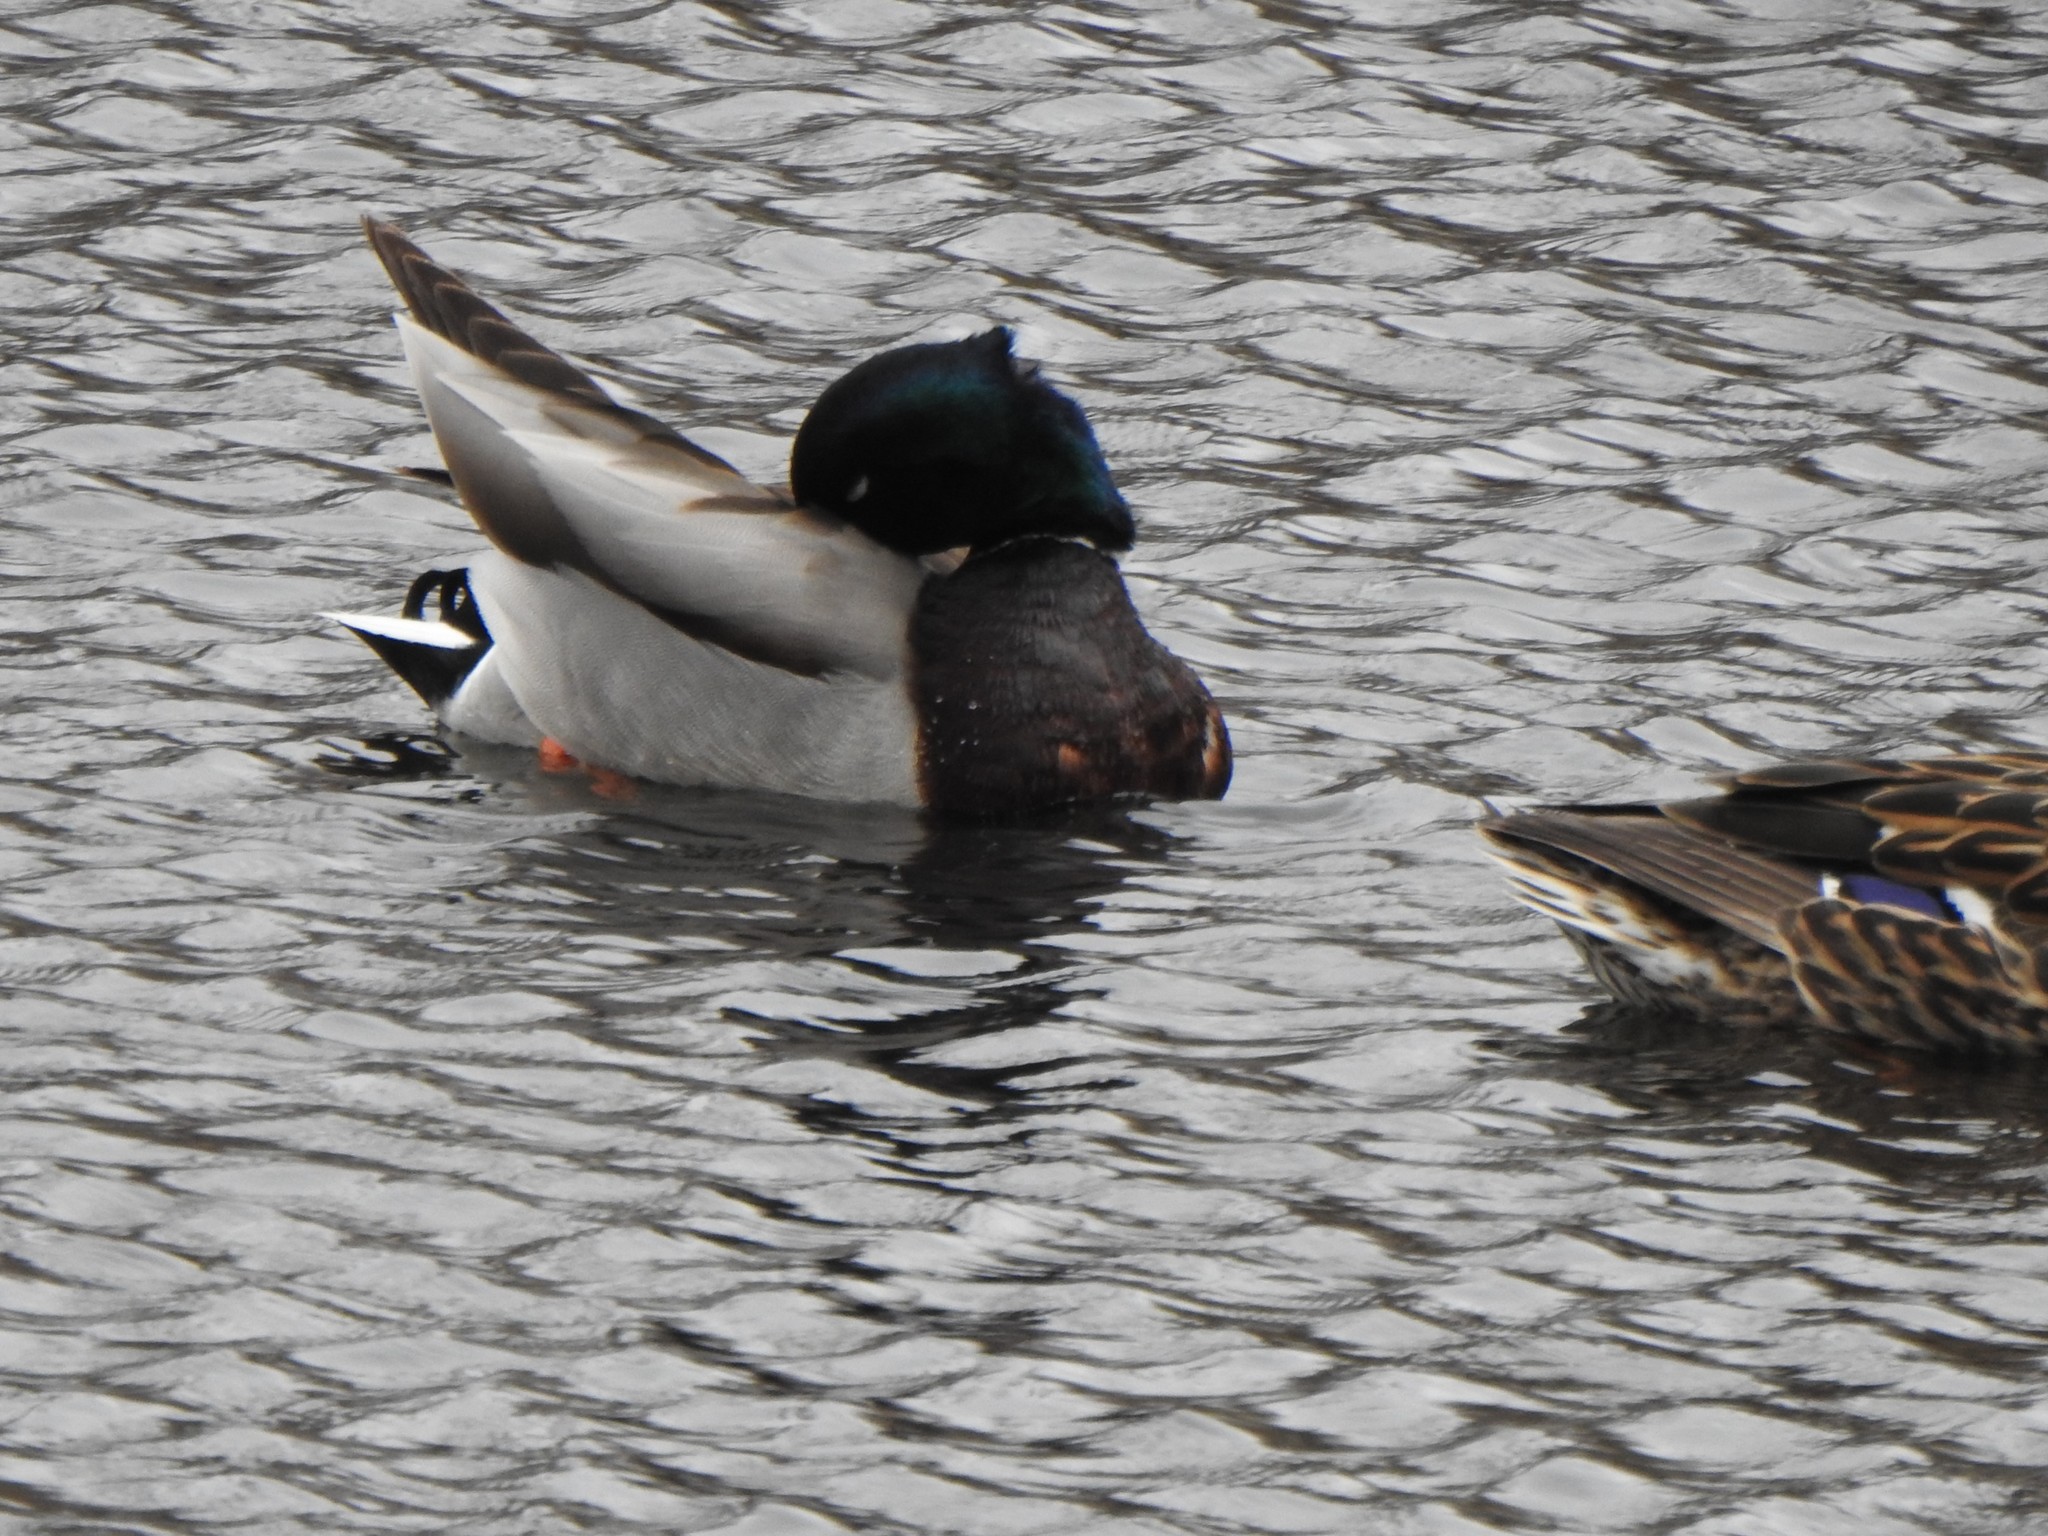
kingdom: Animalia
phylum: Chordata
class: Aves
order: Anseriformes
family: Anatidae
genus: Anas
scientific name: Anas platyrhynchos
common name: Mallard
